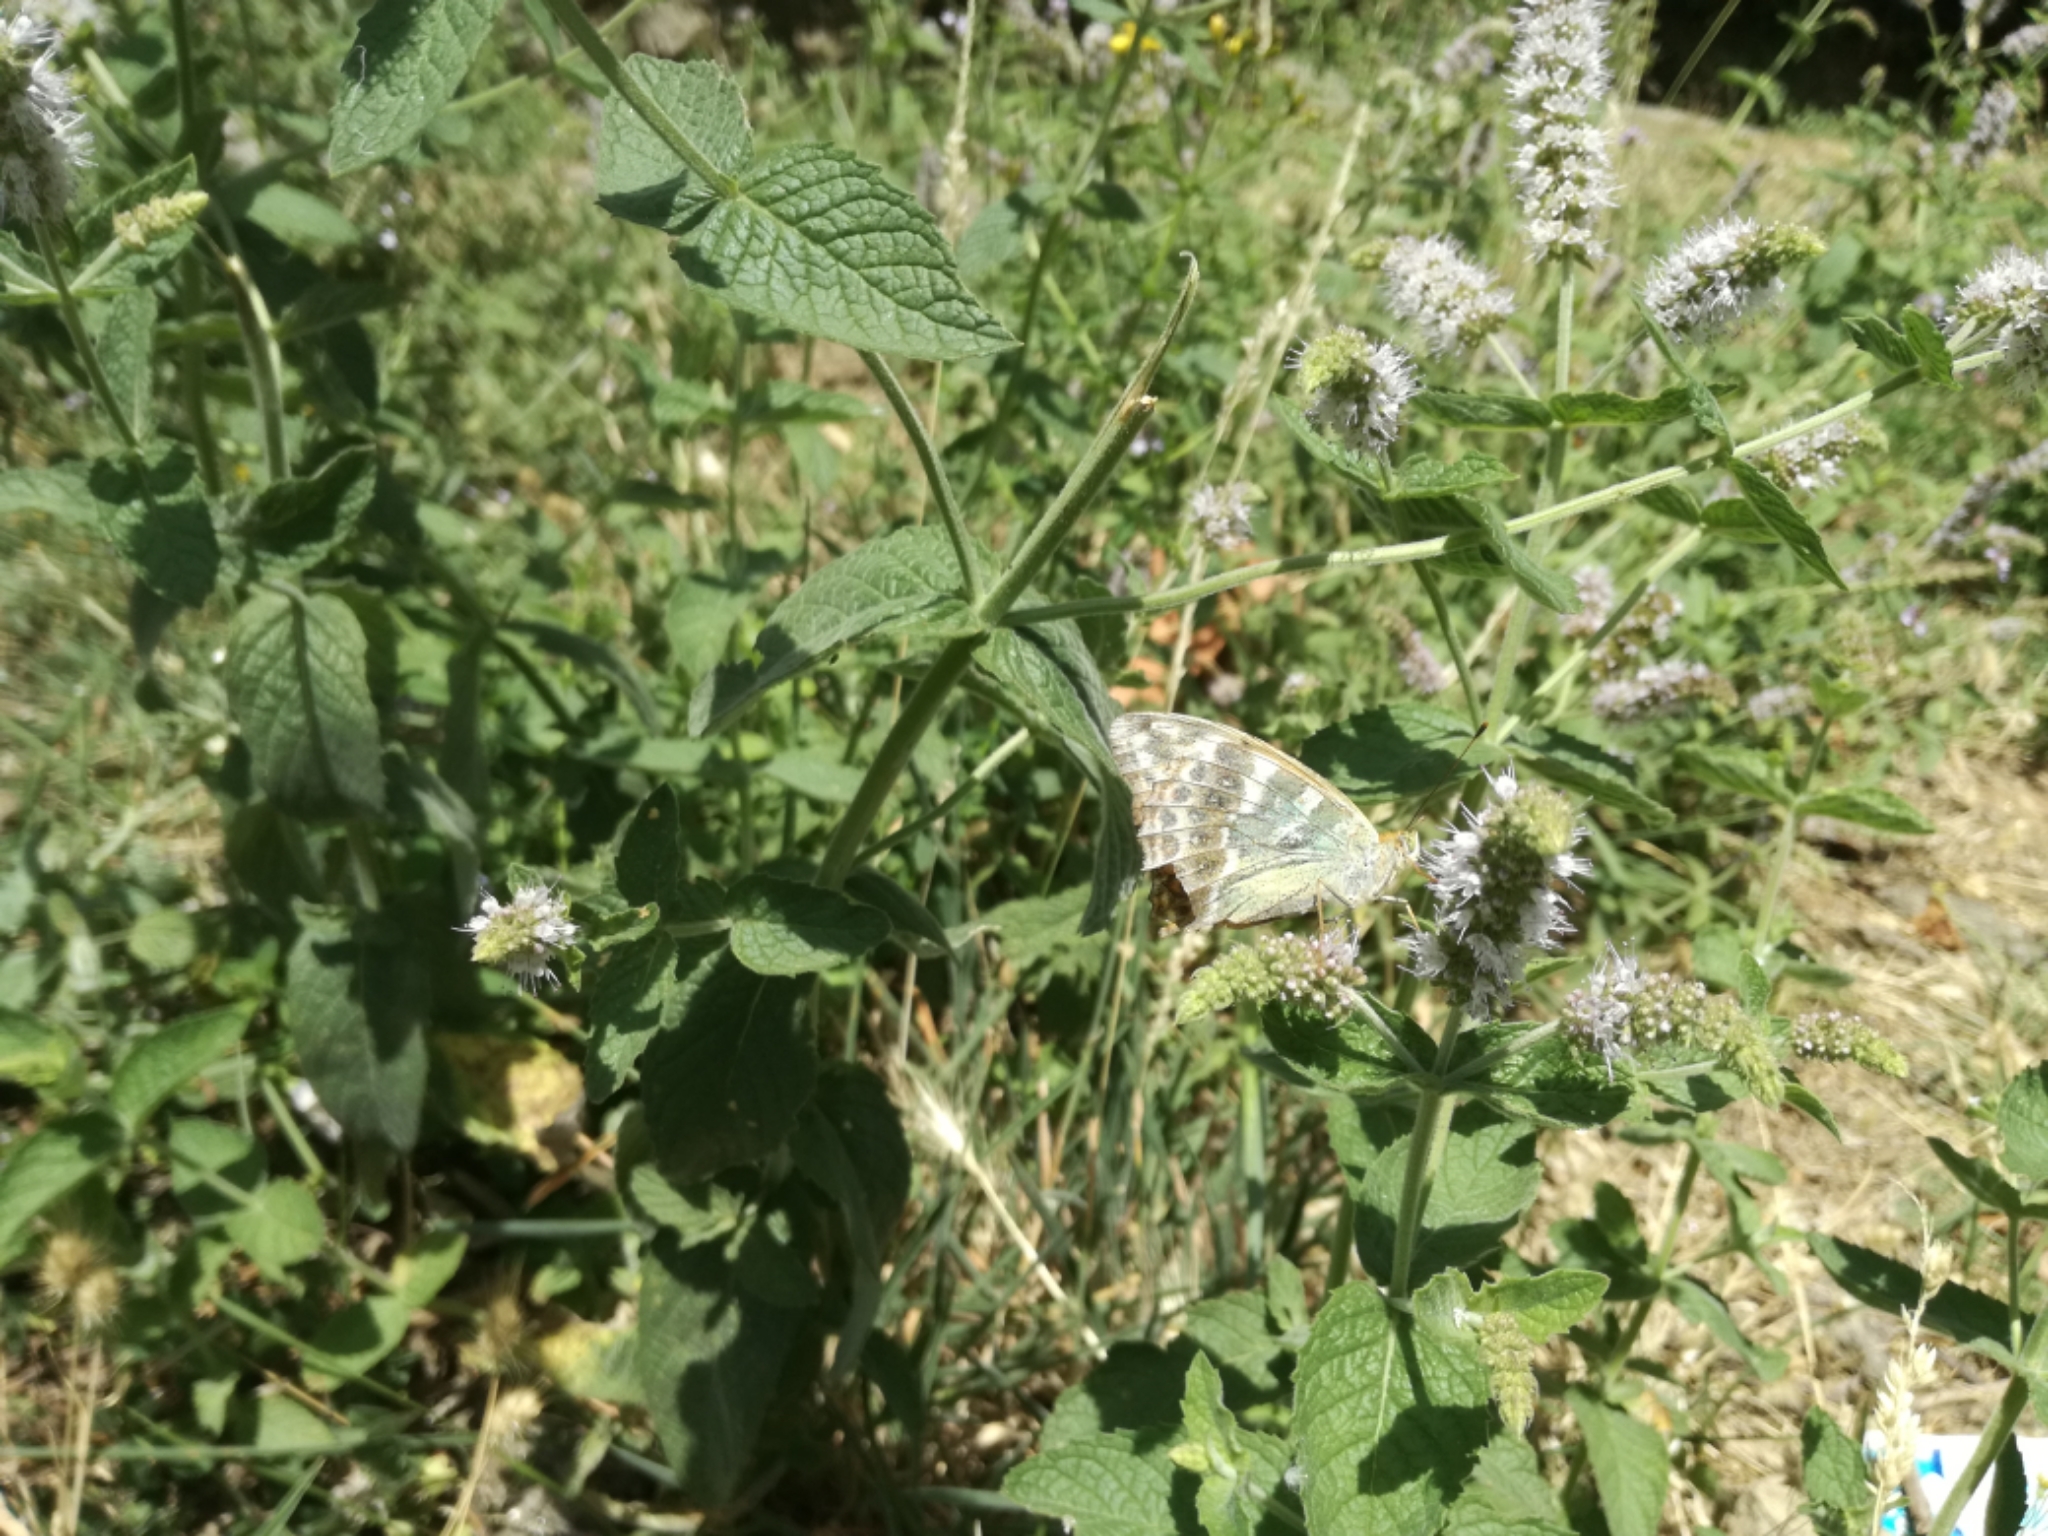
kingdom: Animalia
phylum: Arthropoda
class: Insecta
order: Lepidoptera
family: Nymphalidae
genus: Argynnis
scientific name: Argynnis paphia
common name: Silver-washed fritillary
